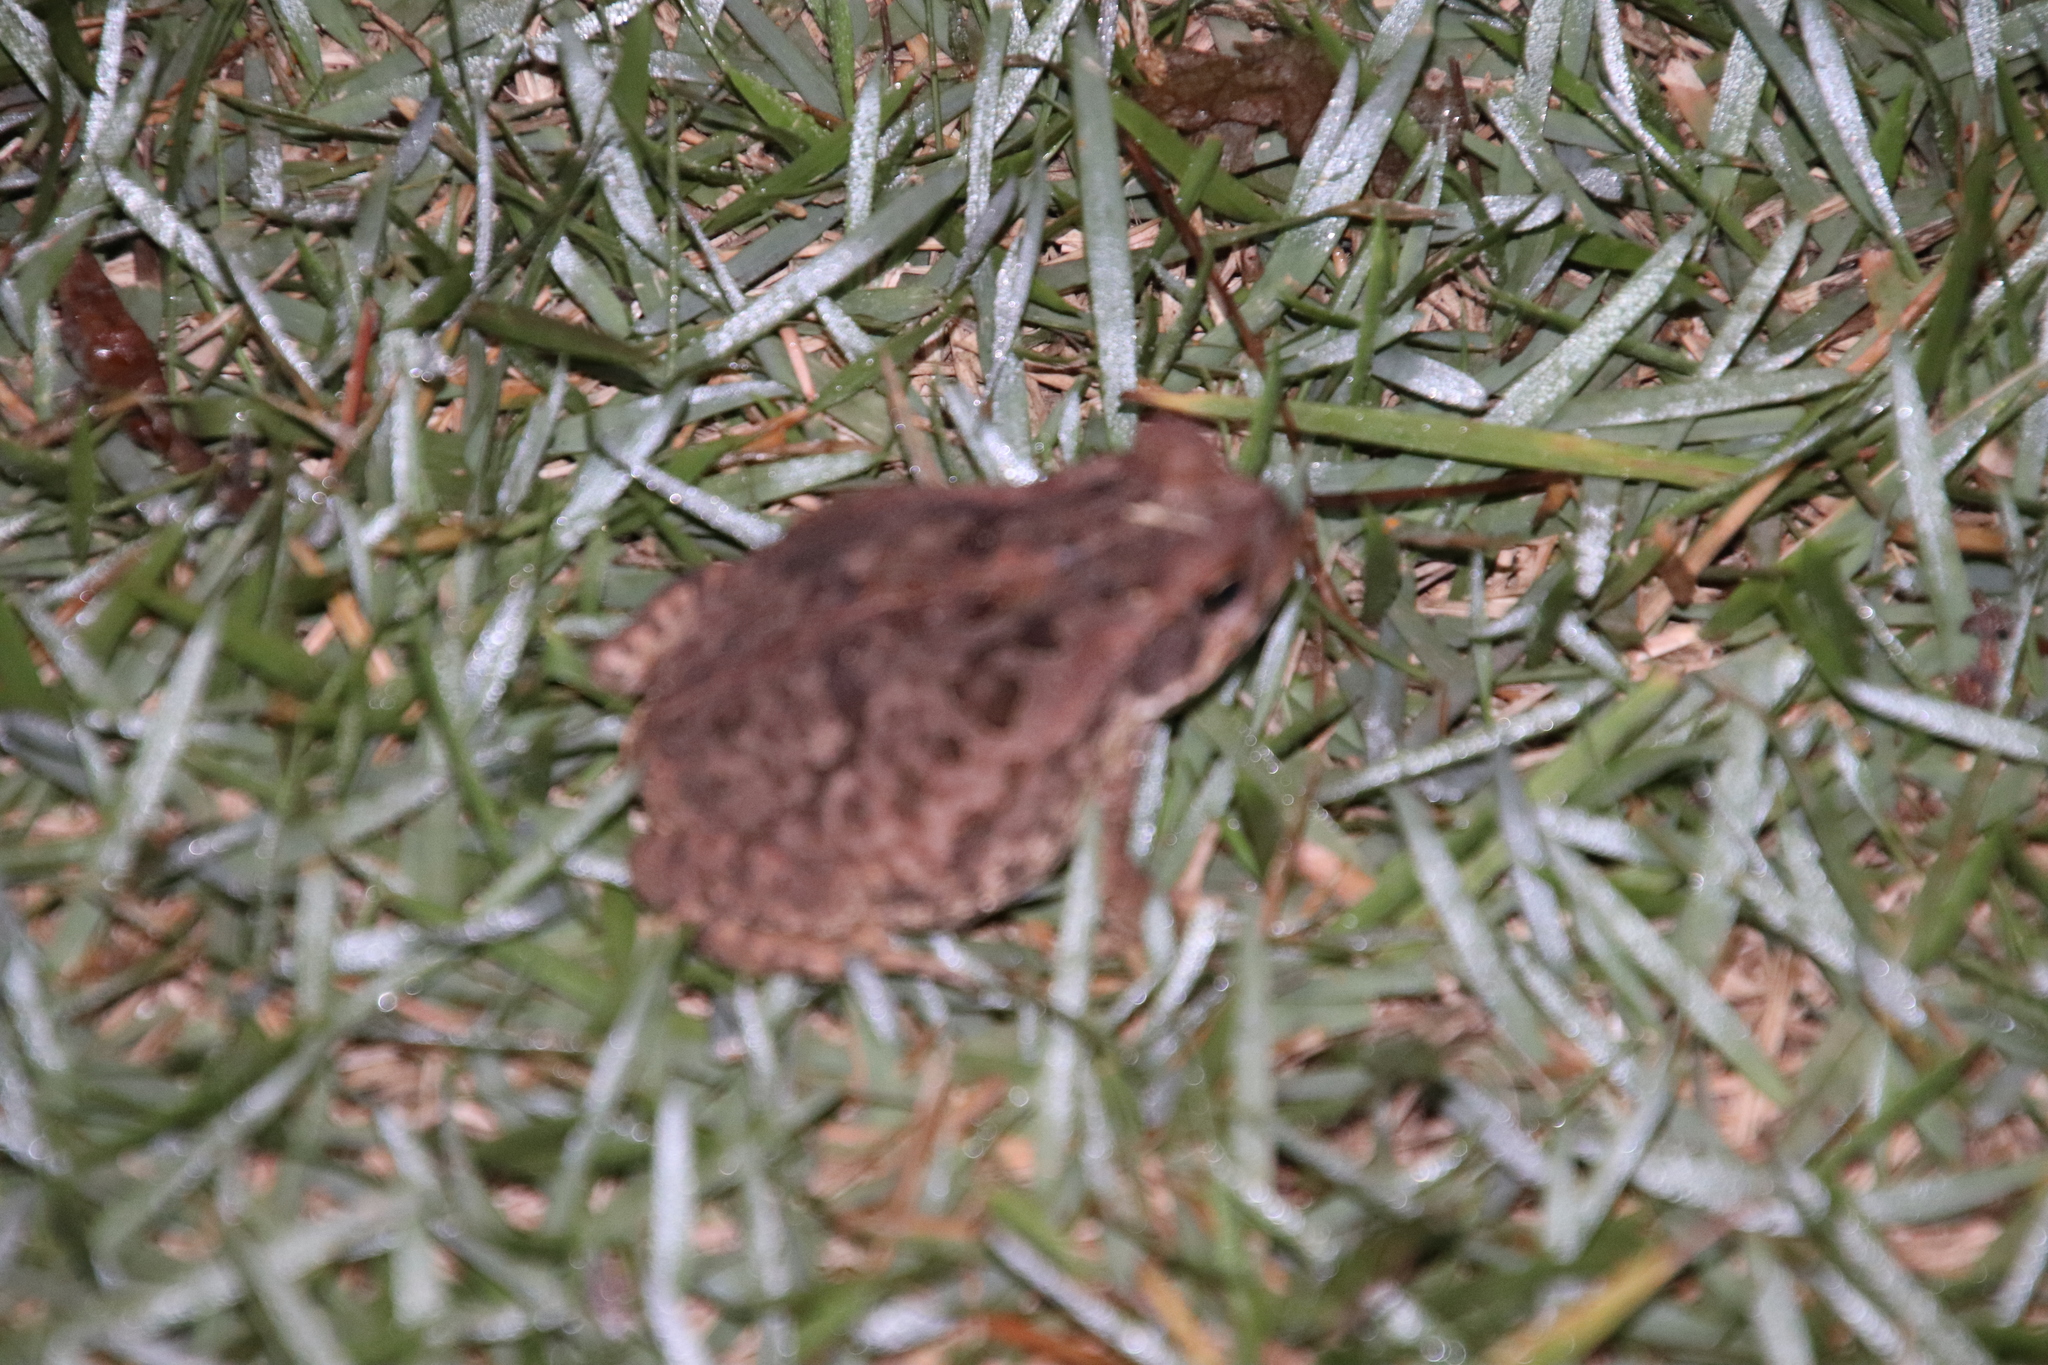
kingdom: Animalia
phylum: Chordata
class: Amphibia
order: Anura
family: Bufonidae
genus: Rhinella
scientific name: Rhinella diptycha
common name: Cope's toad
